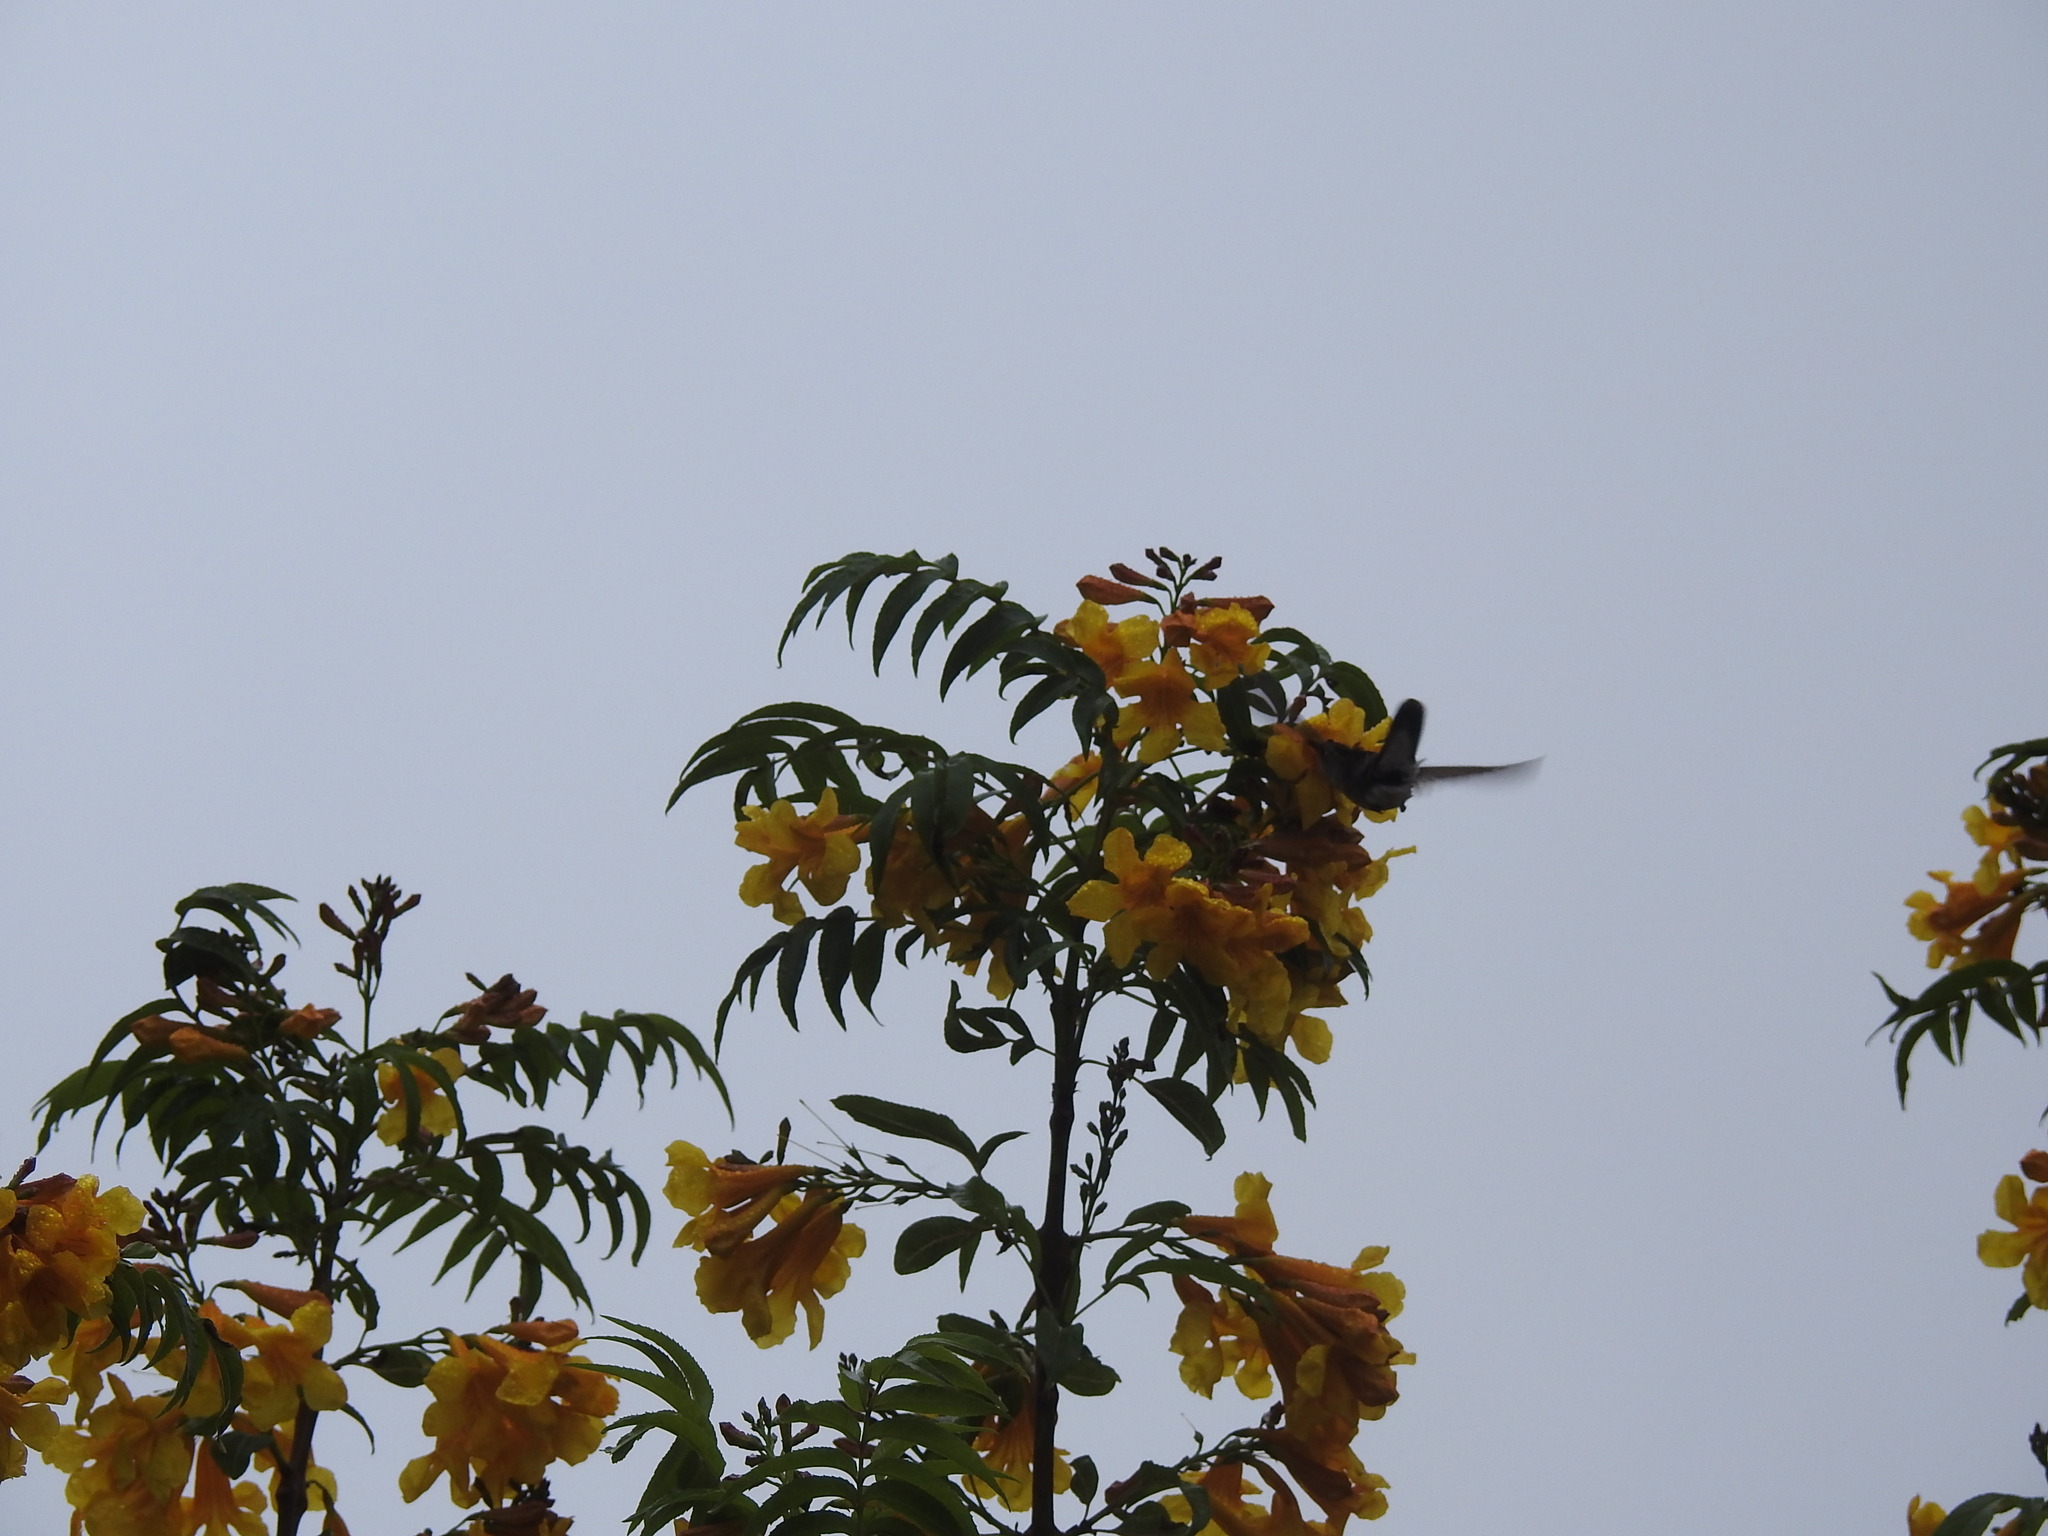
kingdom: Plantae
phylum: Tracheophyta
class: Magnoliopsida
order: Lamiales
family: Bignoniaceae
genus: Tecoma
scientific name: Tecoma stans
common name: Yellow trumpetbush
